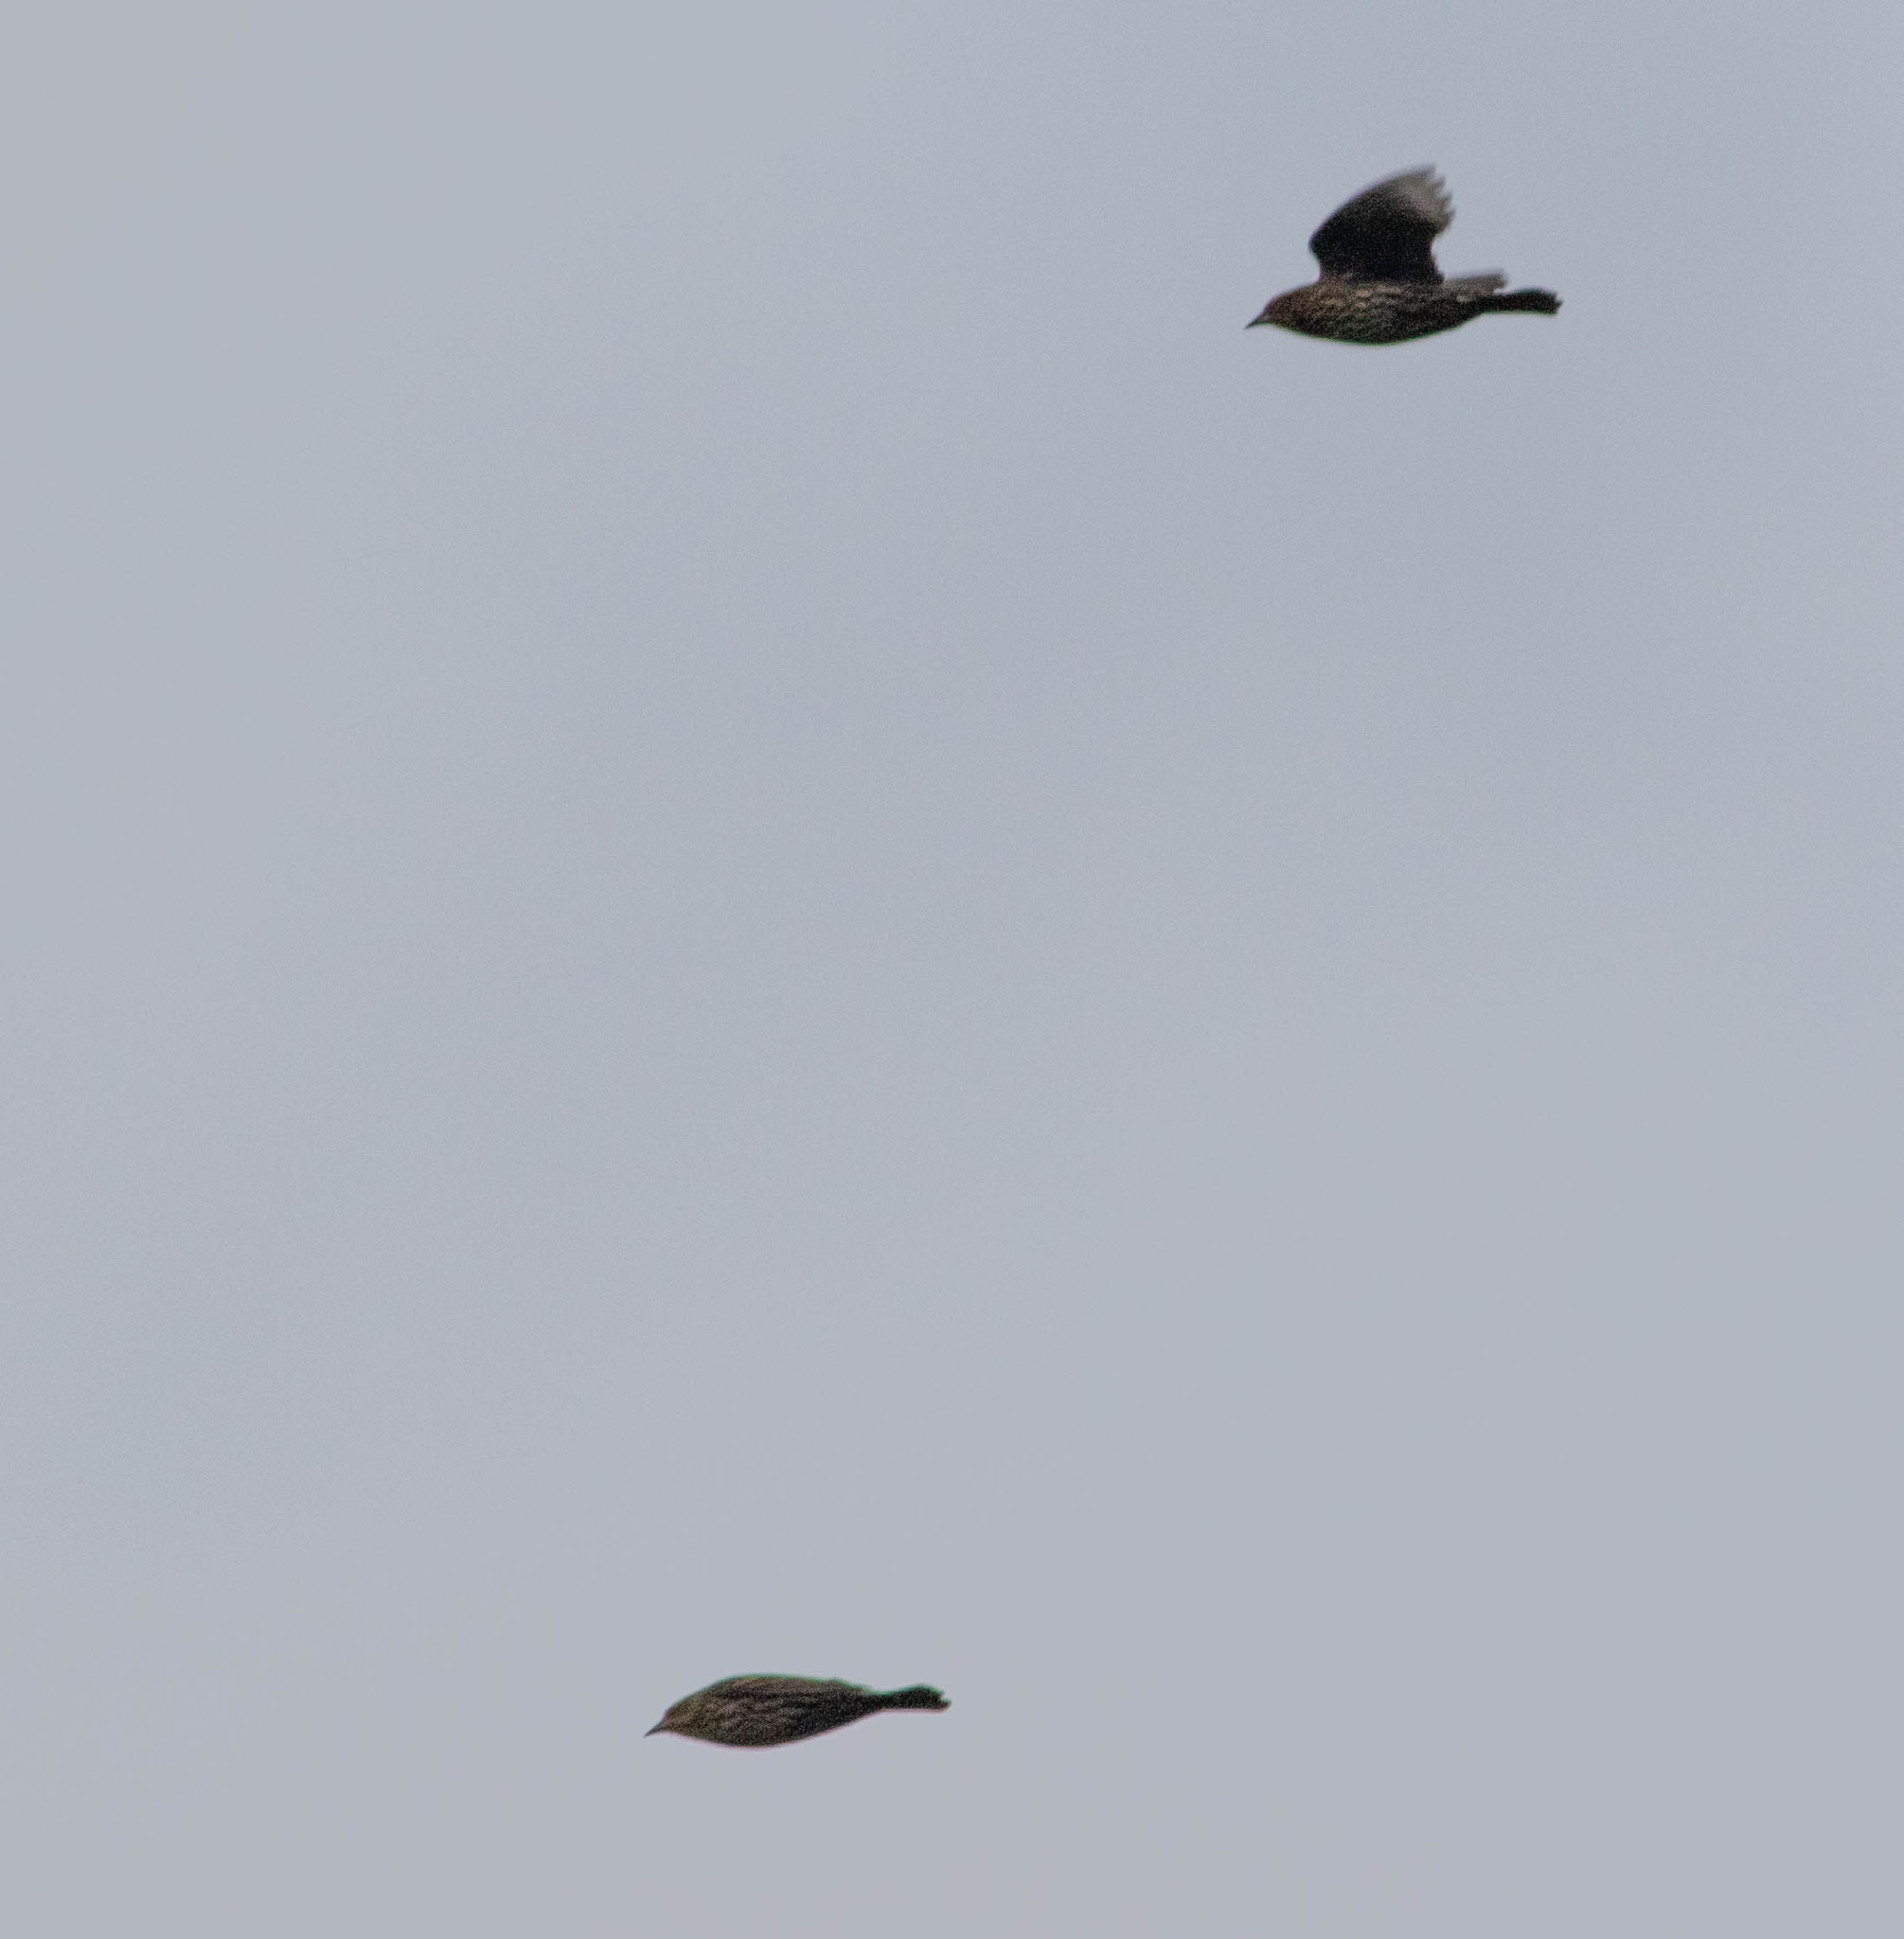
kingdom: Animalia
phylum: Chordata
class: Aves
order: Passeriformes
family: Icteridae
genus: Agelaius
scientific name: Agelaius phoeniceus
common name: Red-winged blackbird
